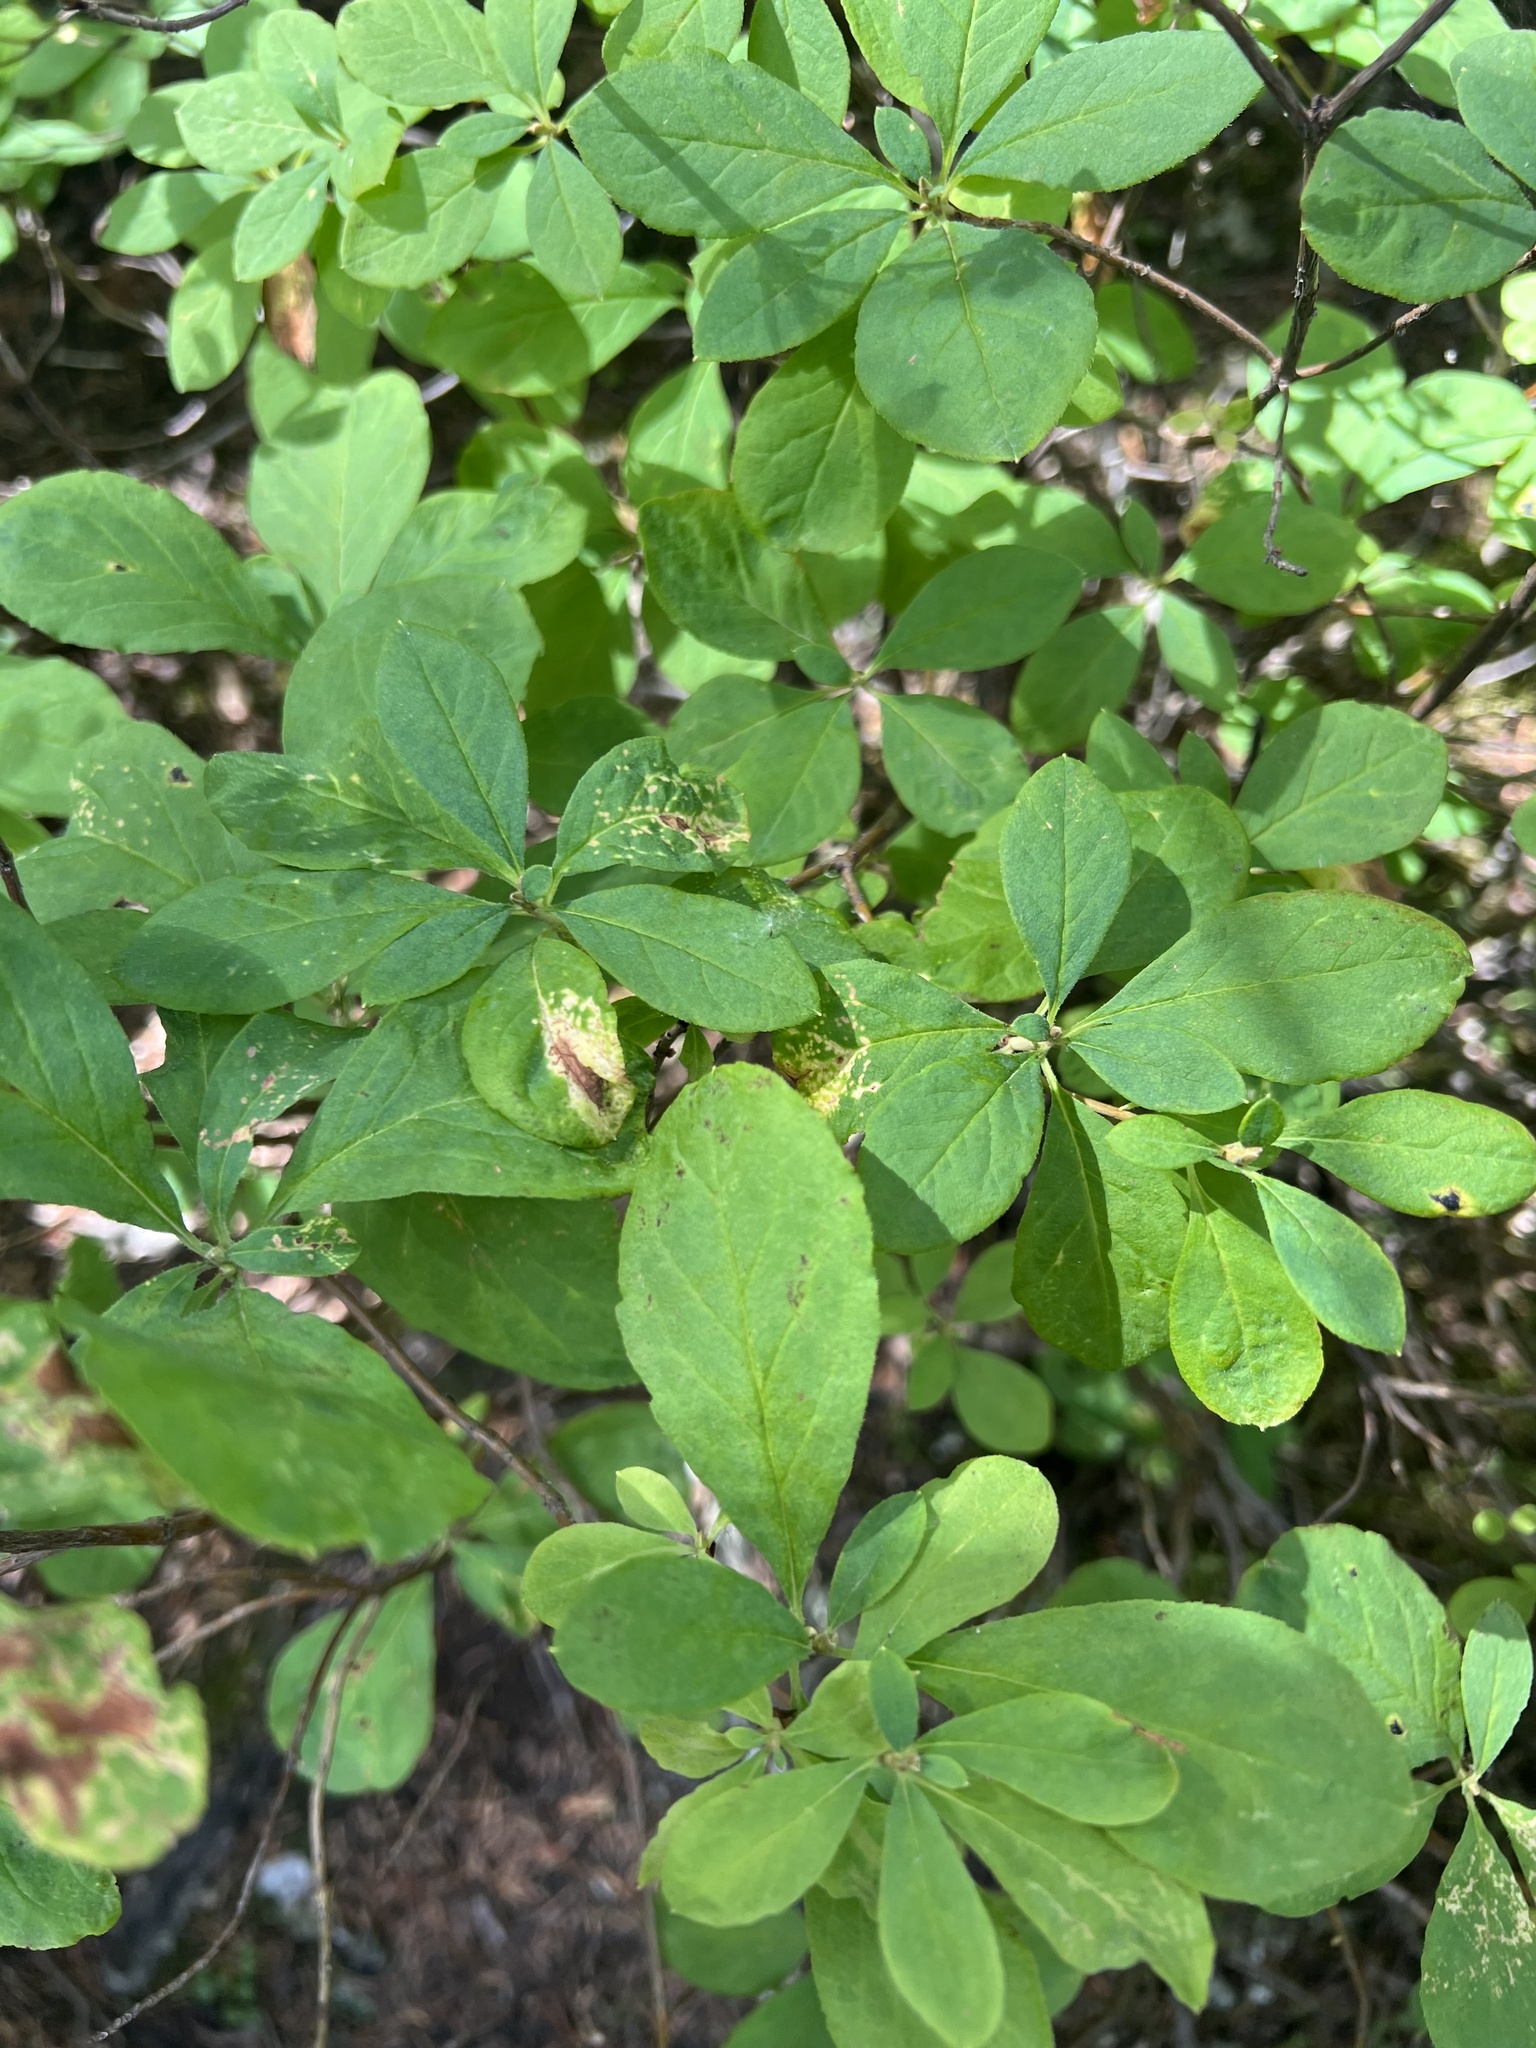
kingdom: Plantae
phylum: Tracheophyta
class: Magnoliopsida
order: Ericales
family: Ericaceae
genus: Rhododendron
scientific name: Rhododendron menziesii
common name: Pacific menziesia
